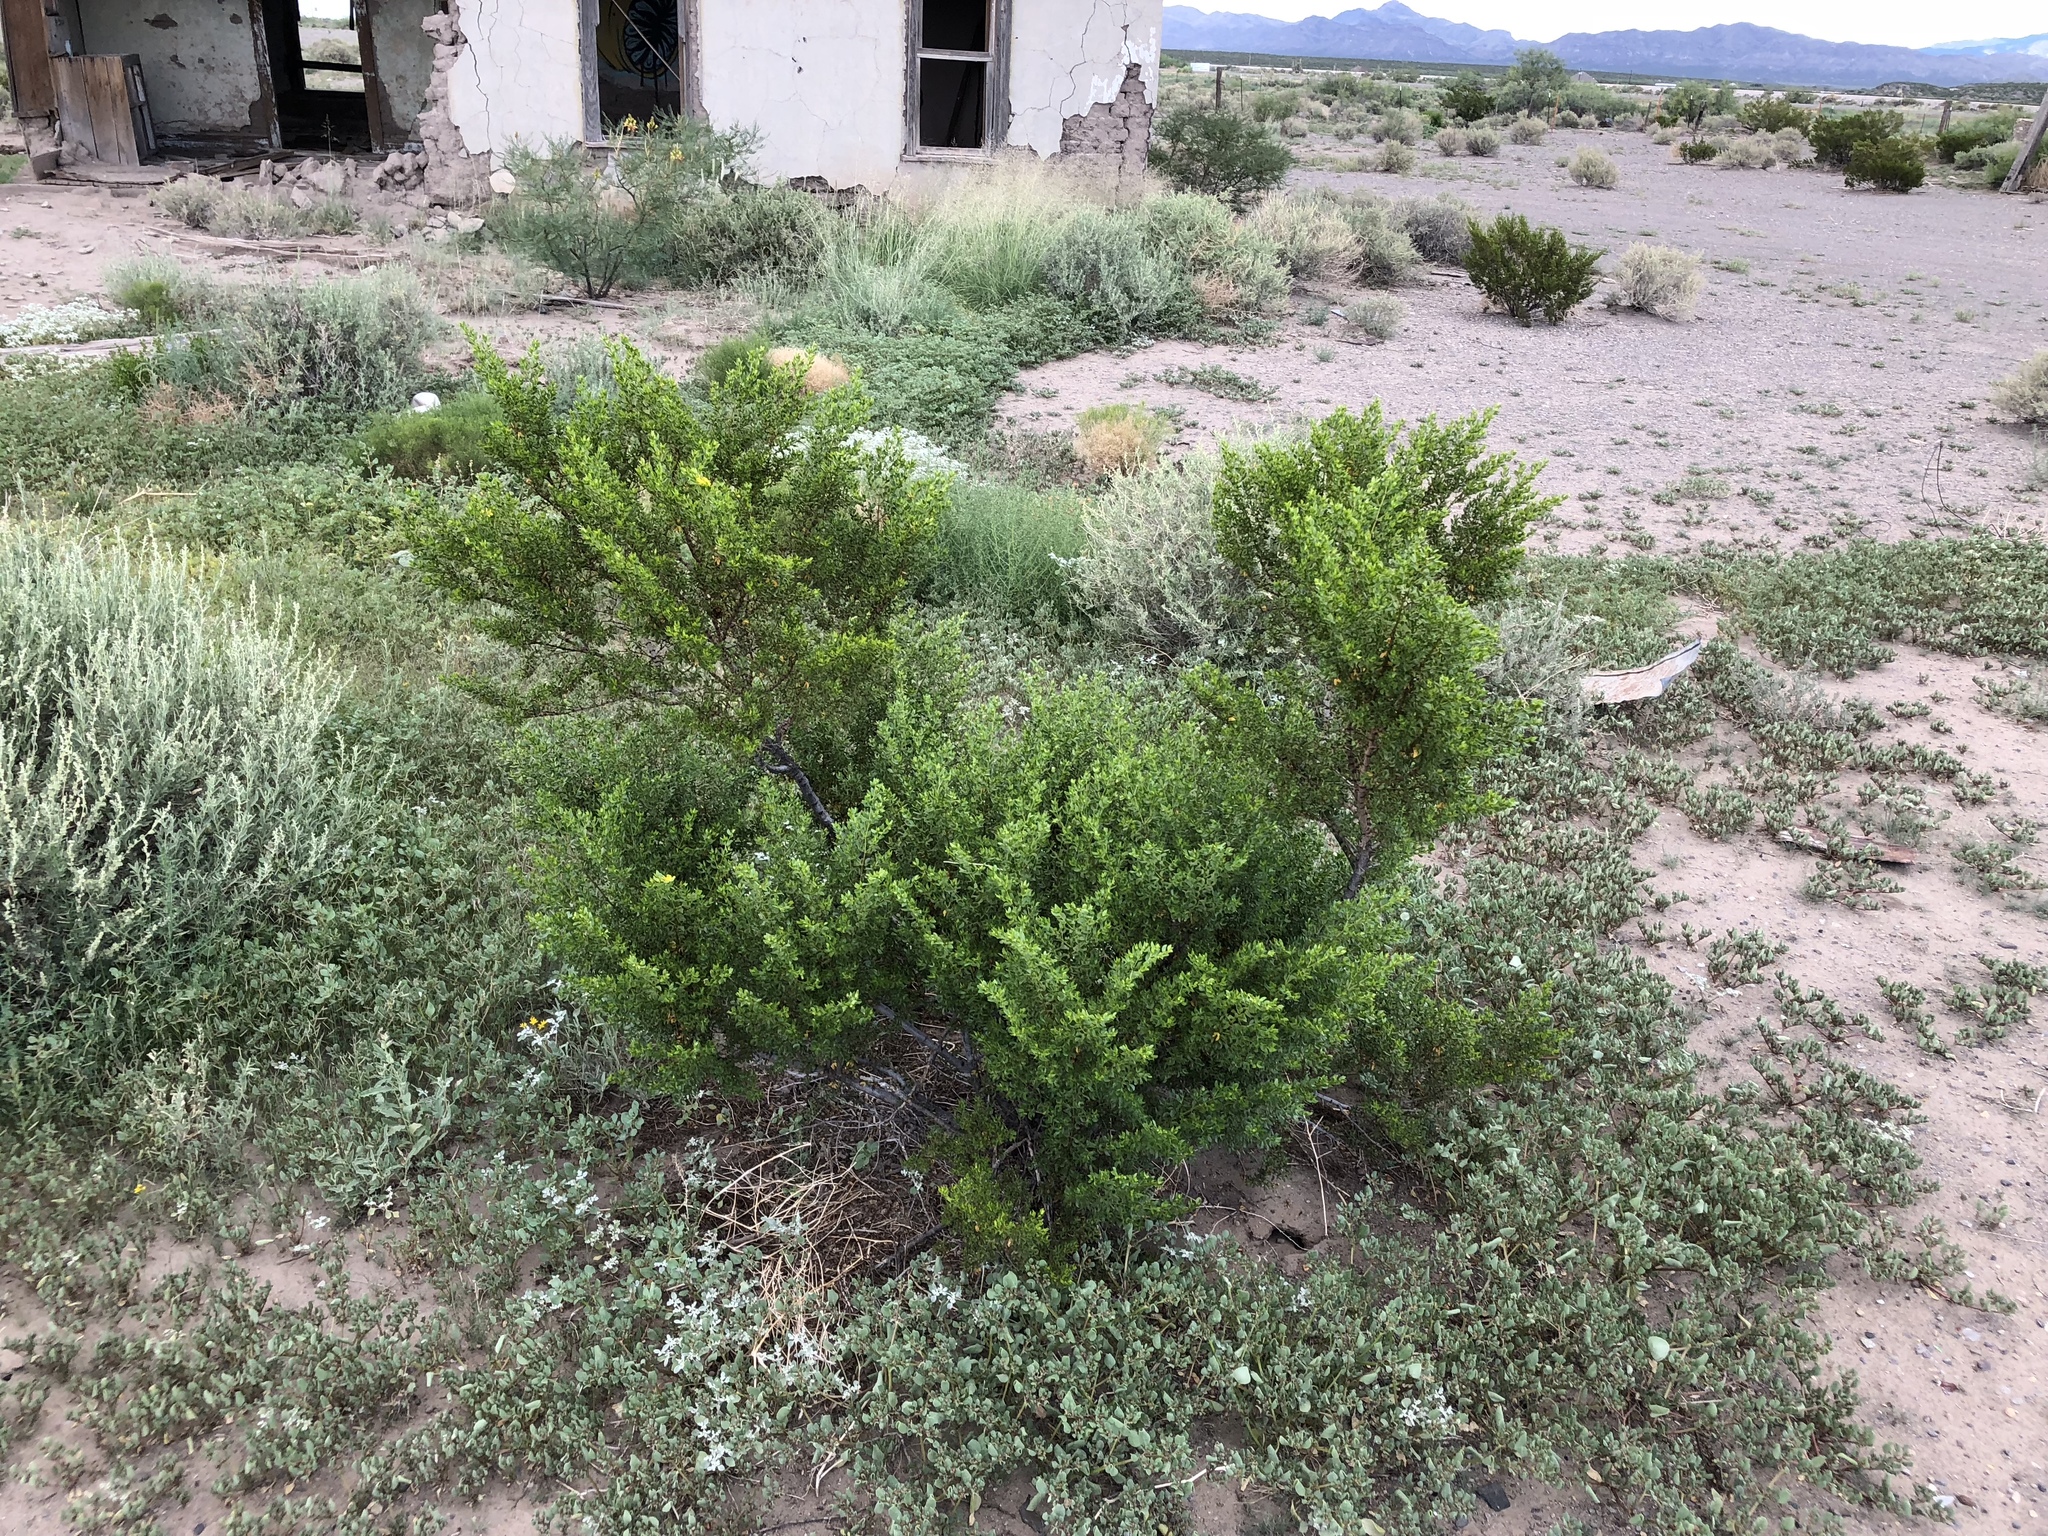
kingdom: Plantae
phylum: Tracheophyta
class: Magnoliopsida
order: Zygophyllales
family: Zygophyllaceae
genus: Larrea
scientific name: Larrea tridentata
